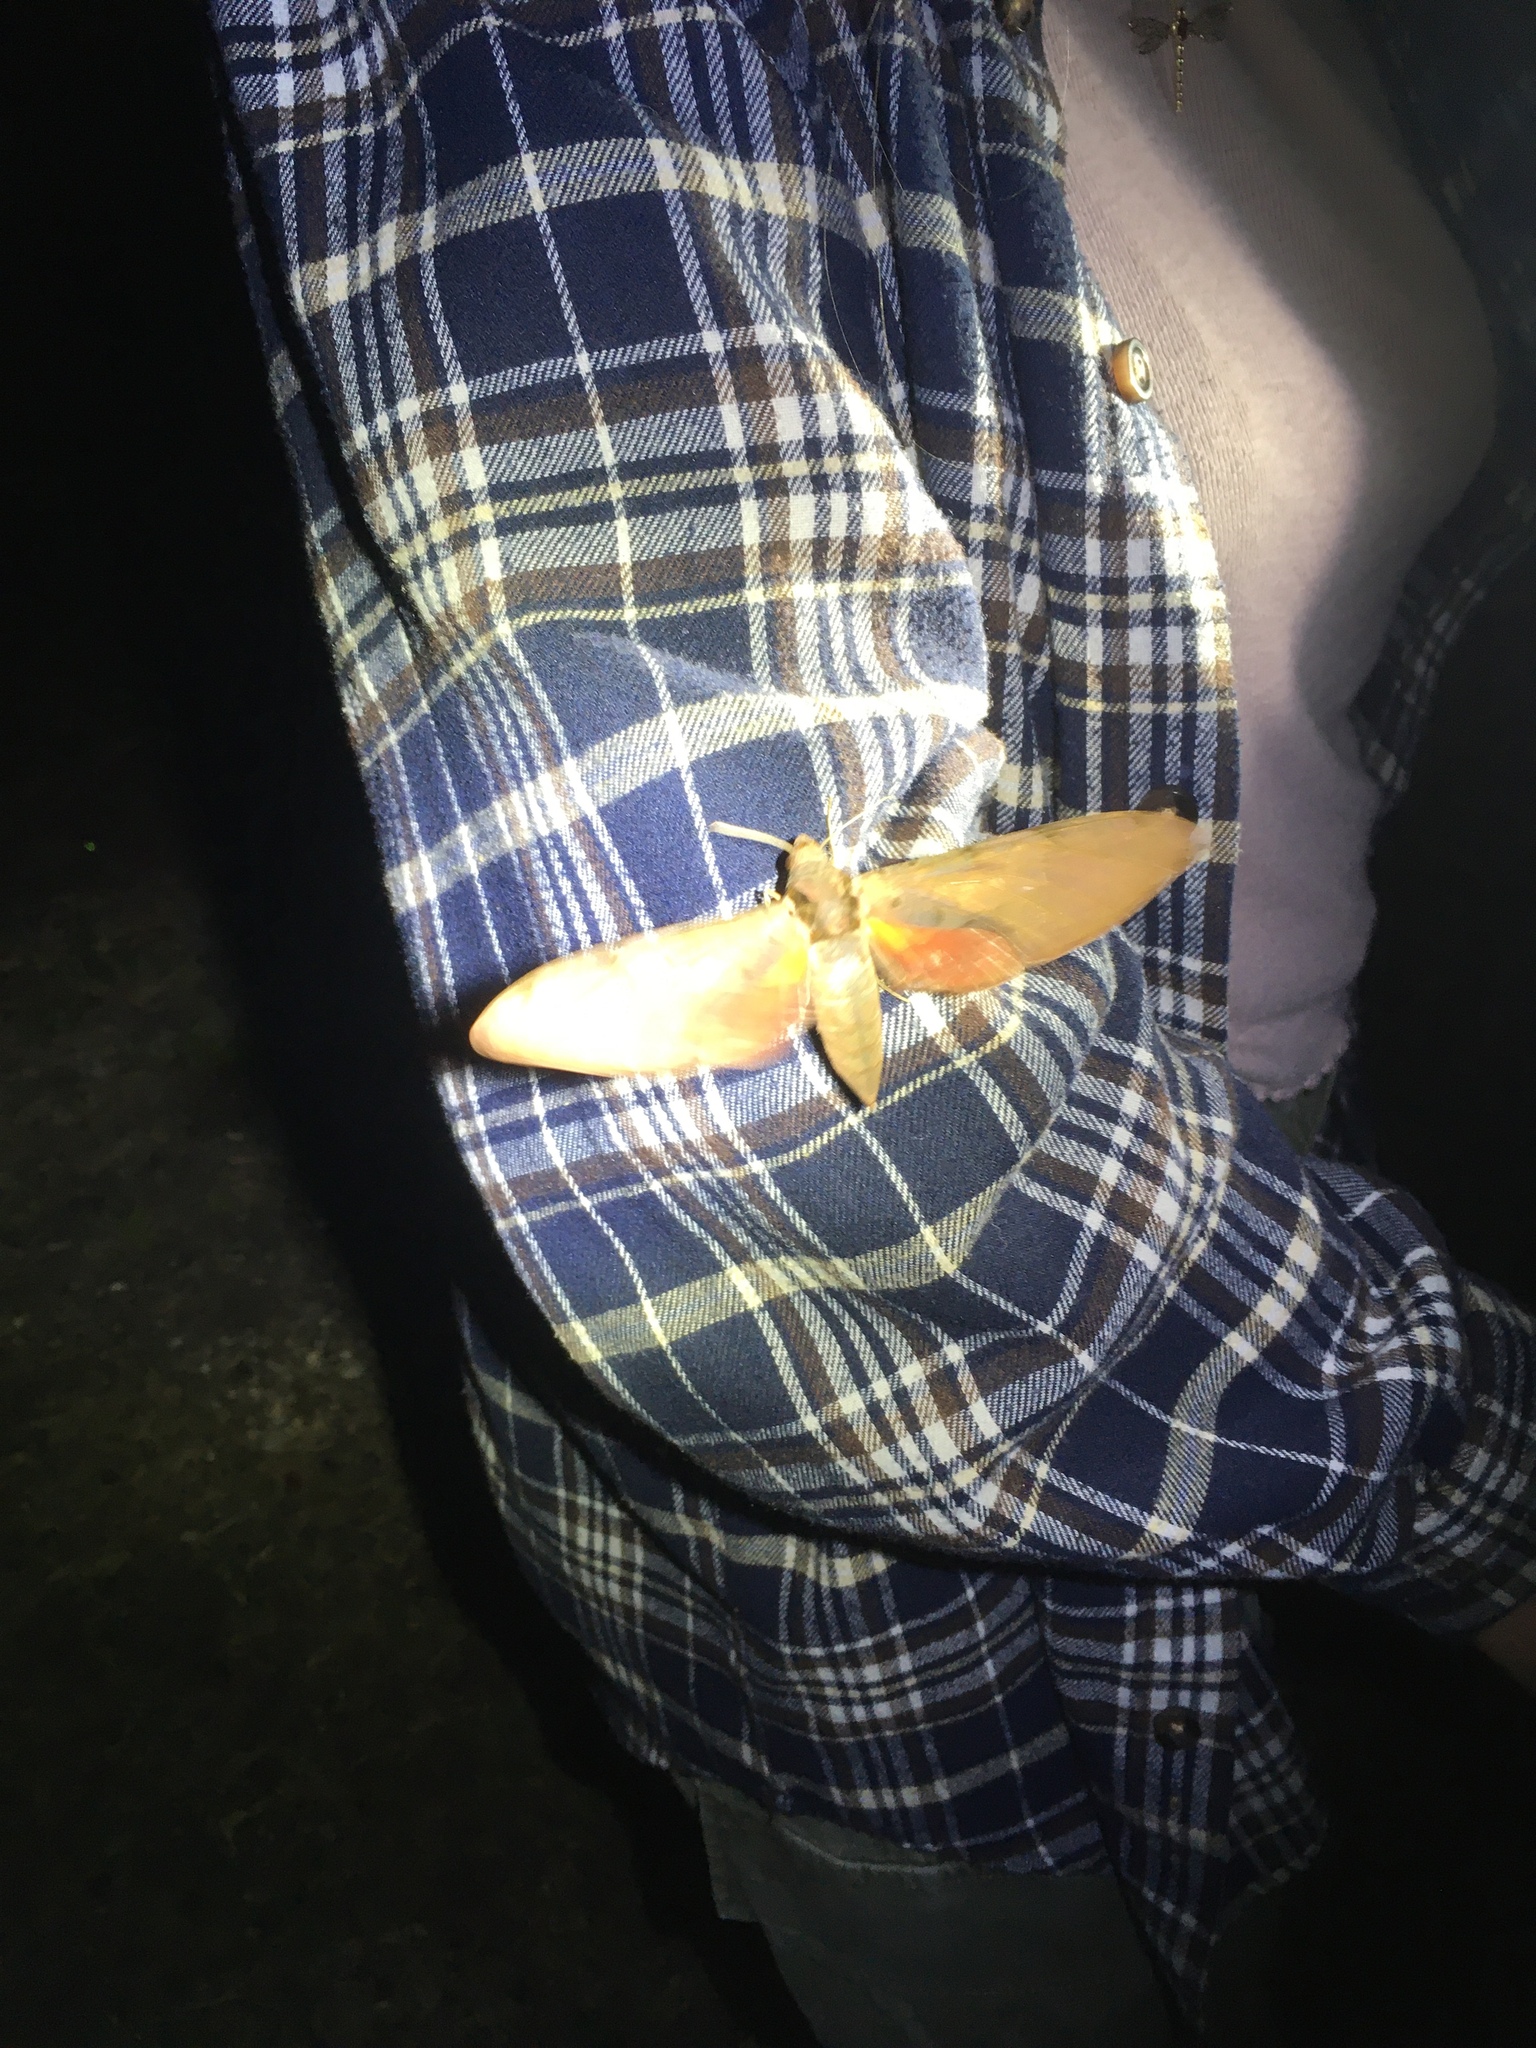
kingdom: Animalia
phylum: Arthropoda
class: Insecta
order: Lepidoptera
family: Sphingidae
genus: Protambulyx
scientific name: Protambulyx strigilis
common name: Streaked sphinx
